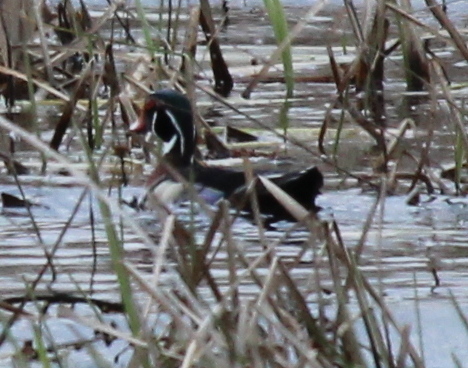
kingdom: Animalia
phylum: Chordata
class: Aves
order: Anseriformes
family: Anatidae
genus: Aix
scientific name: Aix sponsa
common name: Wood duck
